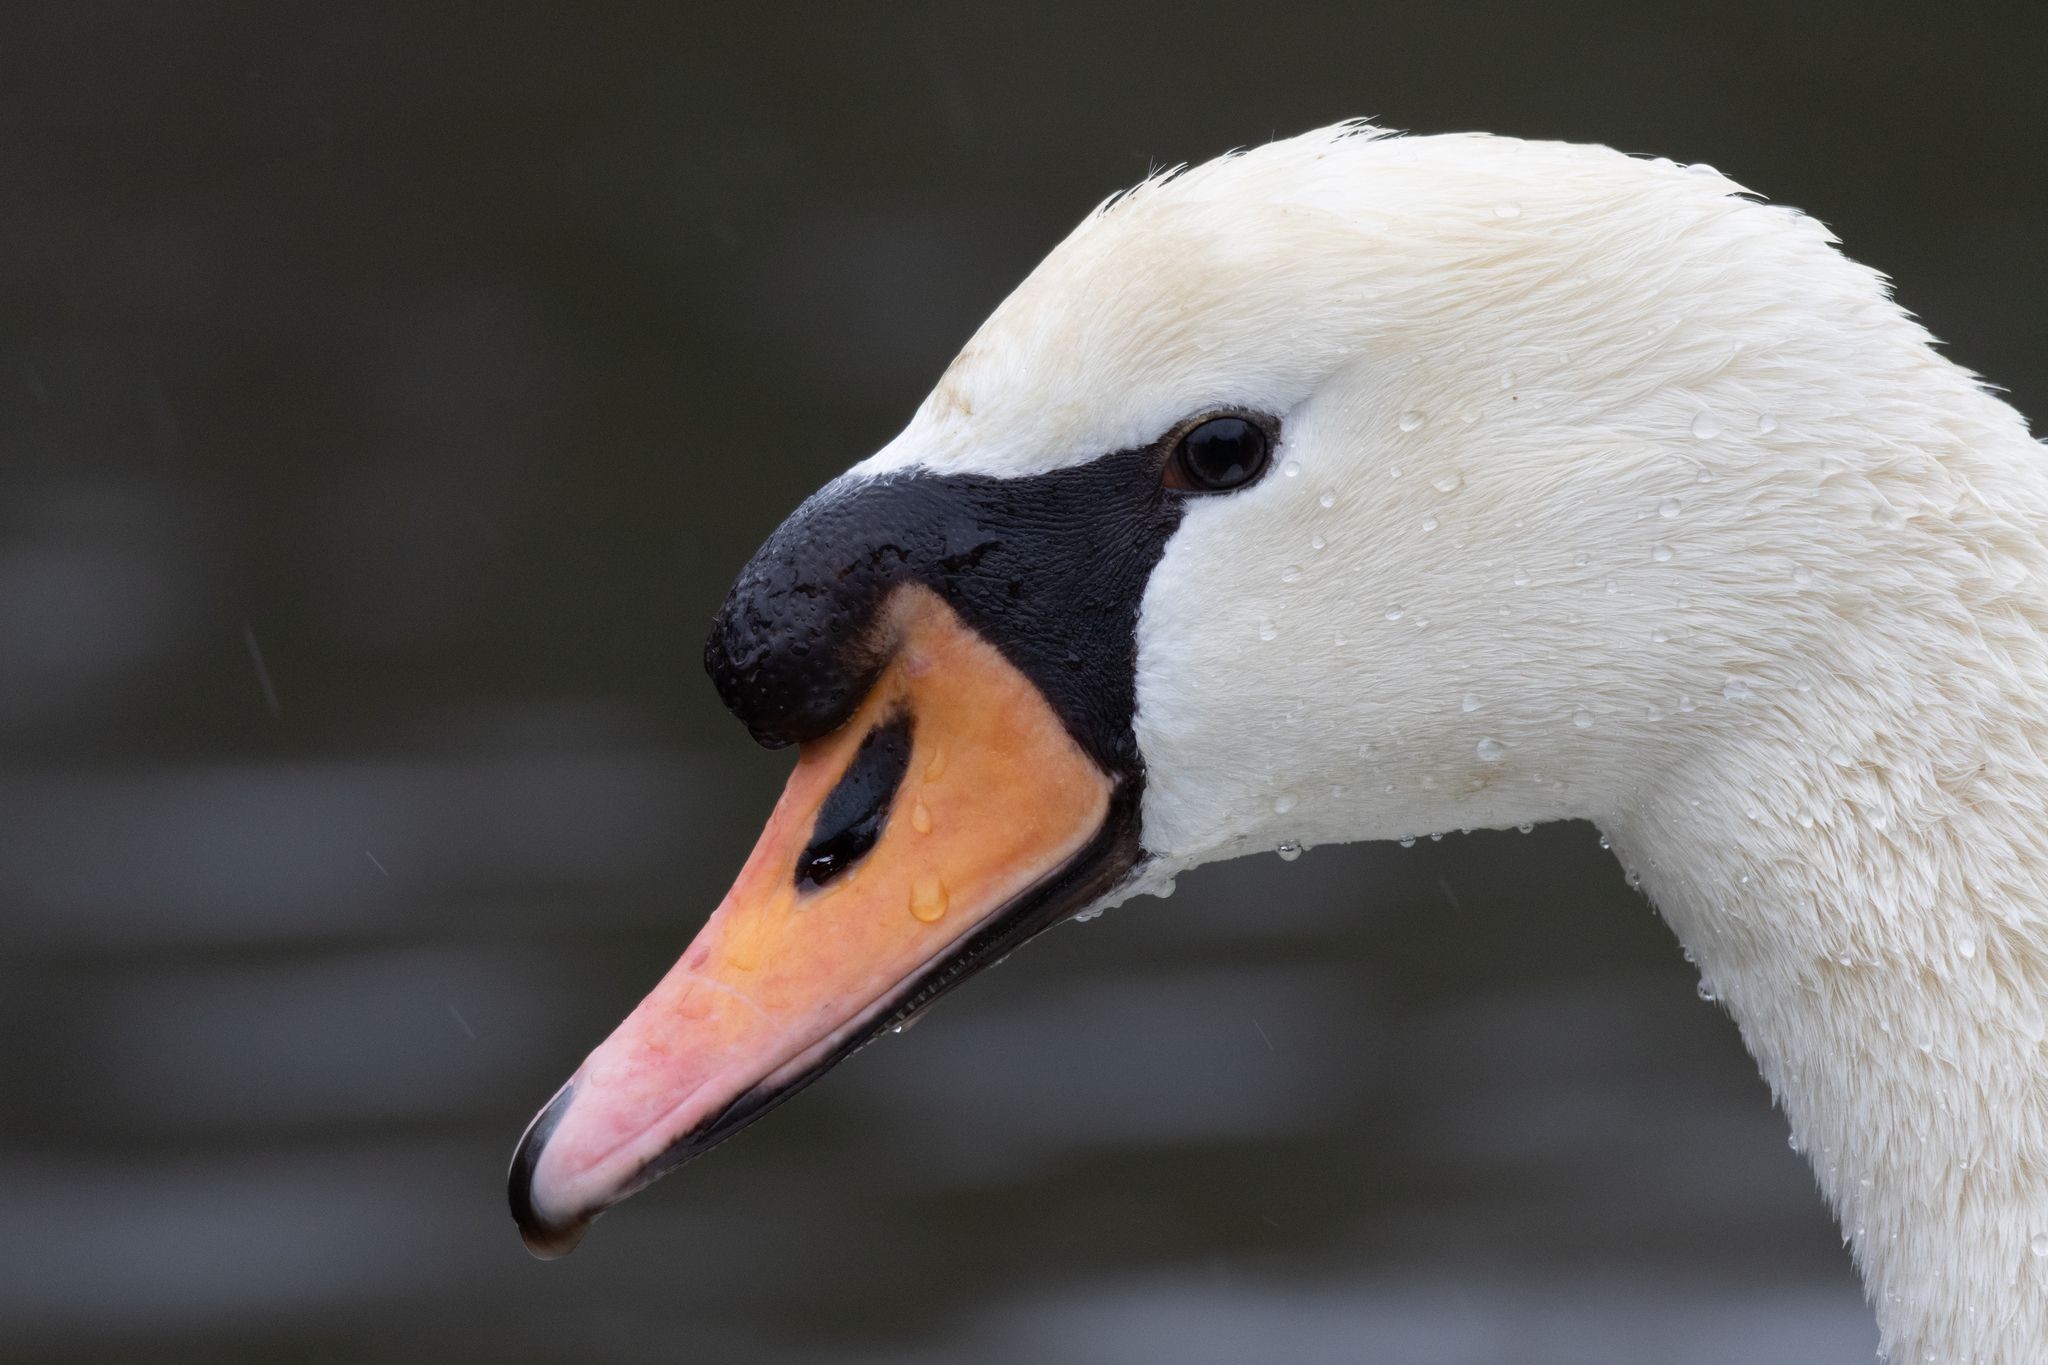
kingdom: Animalia
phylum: Chordata
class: Aves
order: Anseriformes
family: Anatidae
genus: Cygnus
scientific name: Cygnus olor
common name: Mute swan
